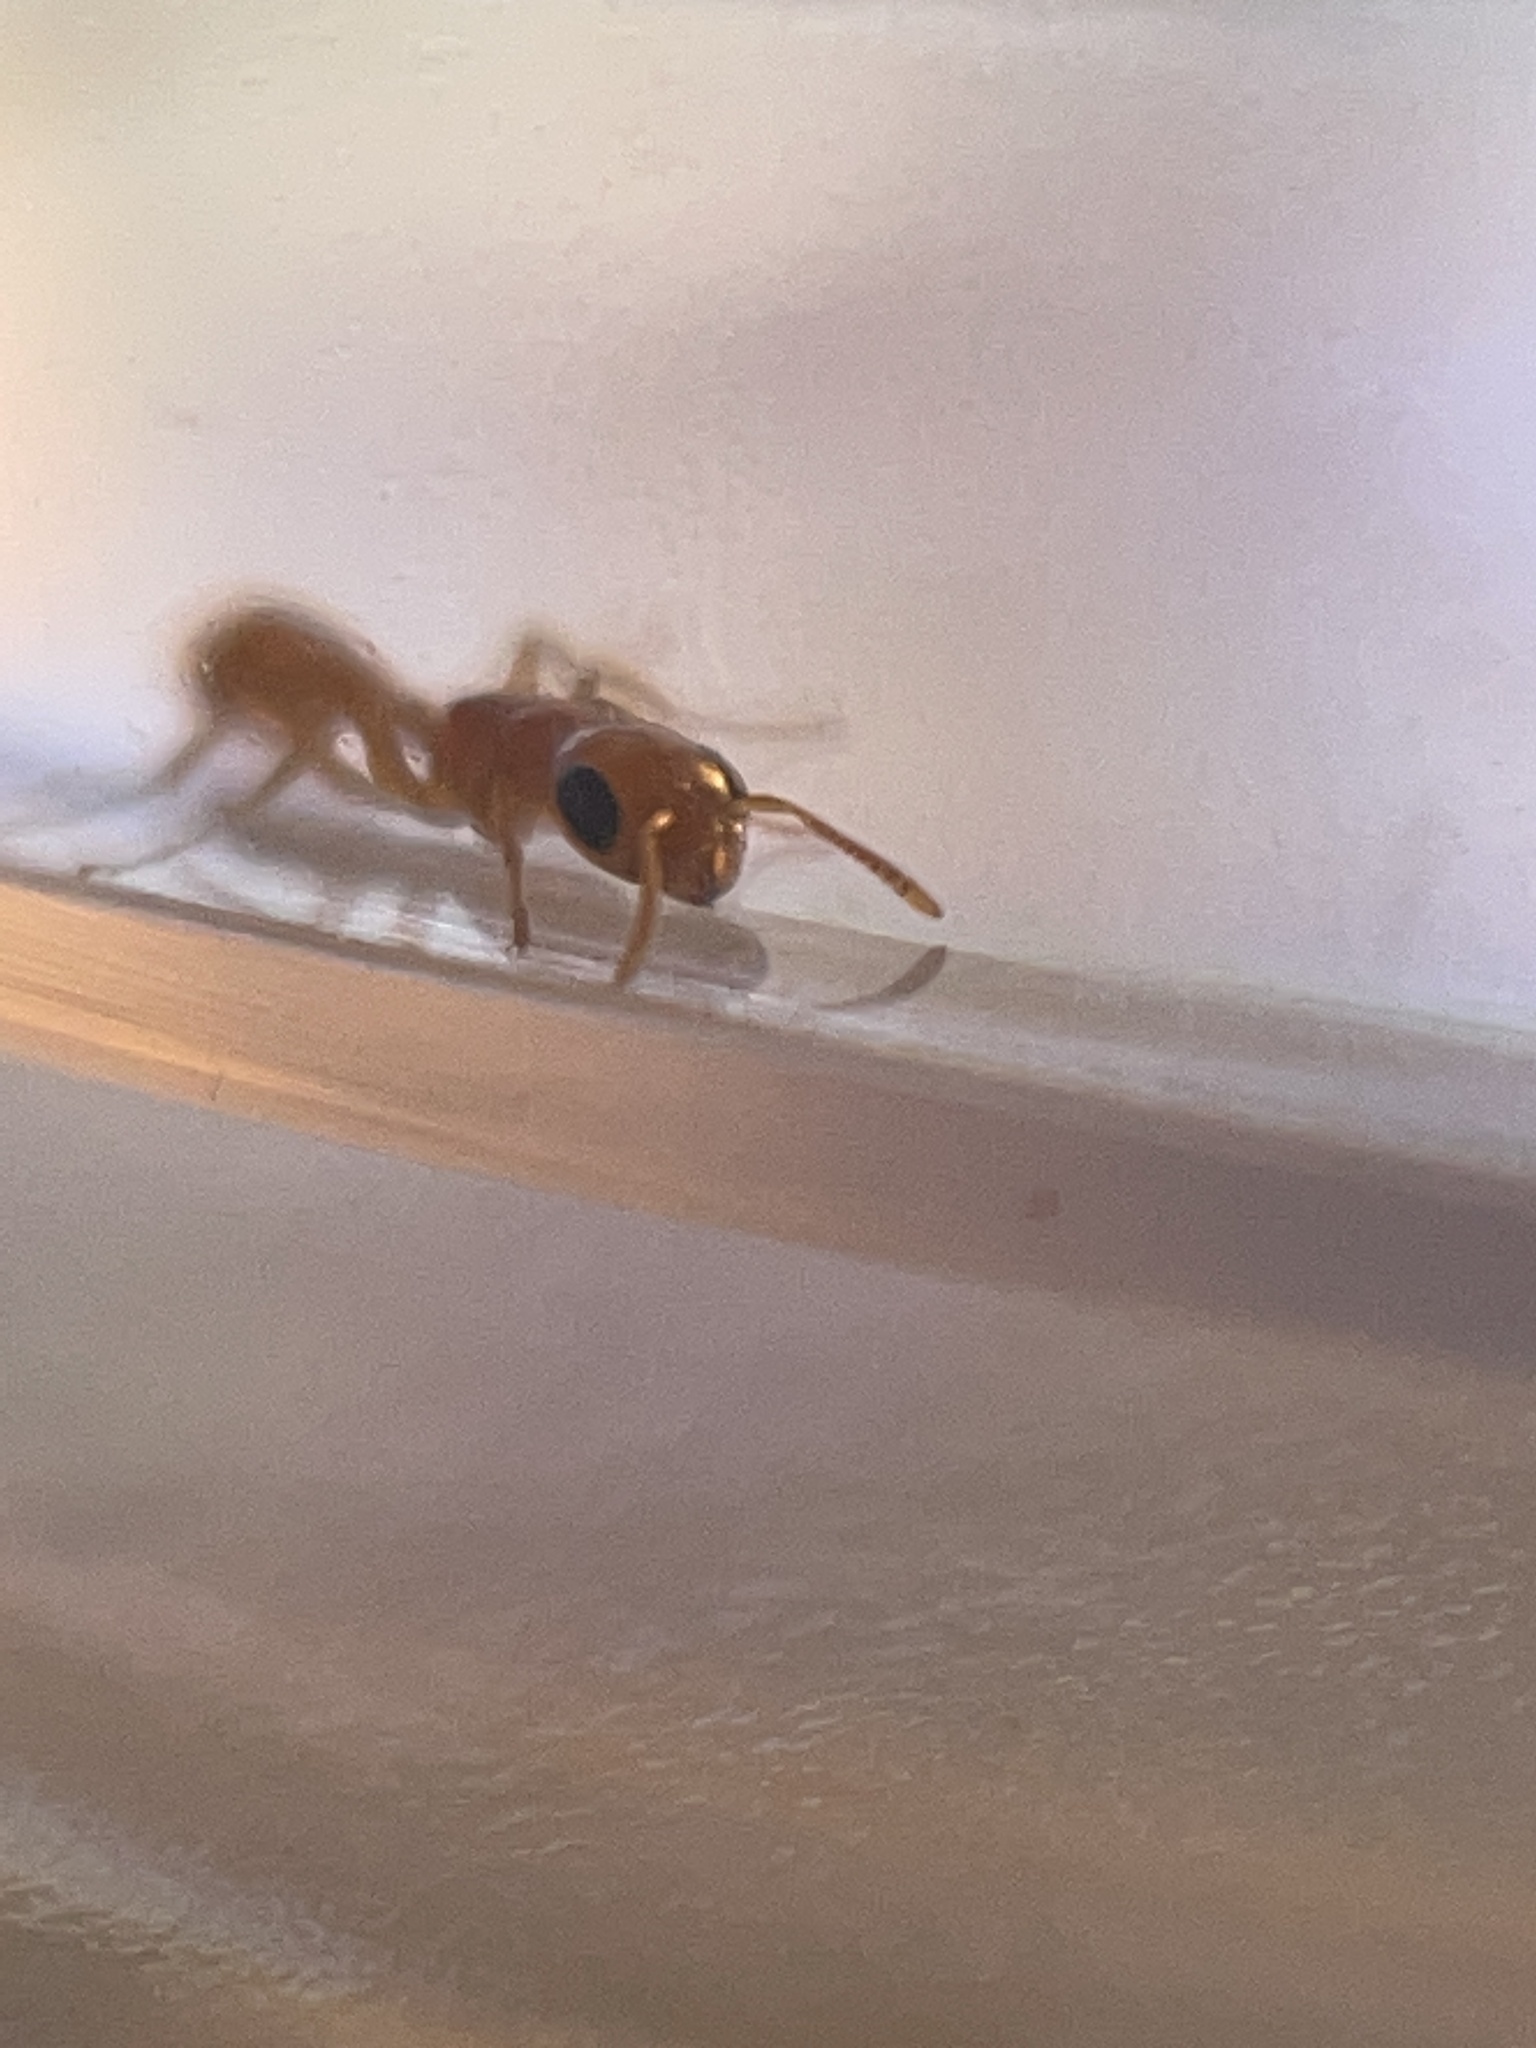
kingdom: Animalia
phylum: Arthropoda
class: Insecta
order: Hymenoptera
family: Formicidae
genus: Pseudomyrmex
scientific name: Pseudomyrmex pallidus
